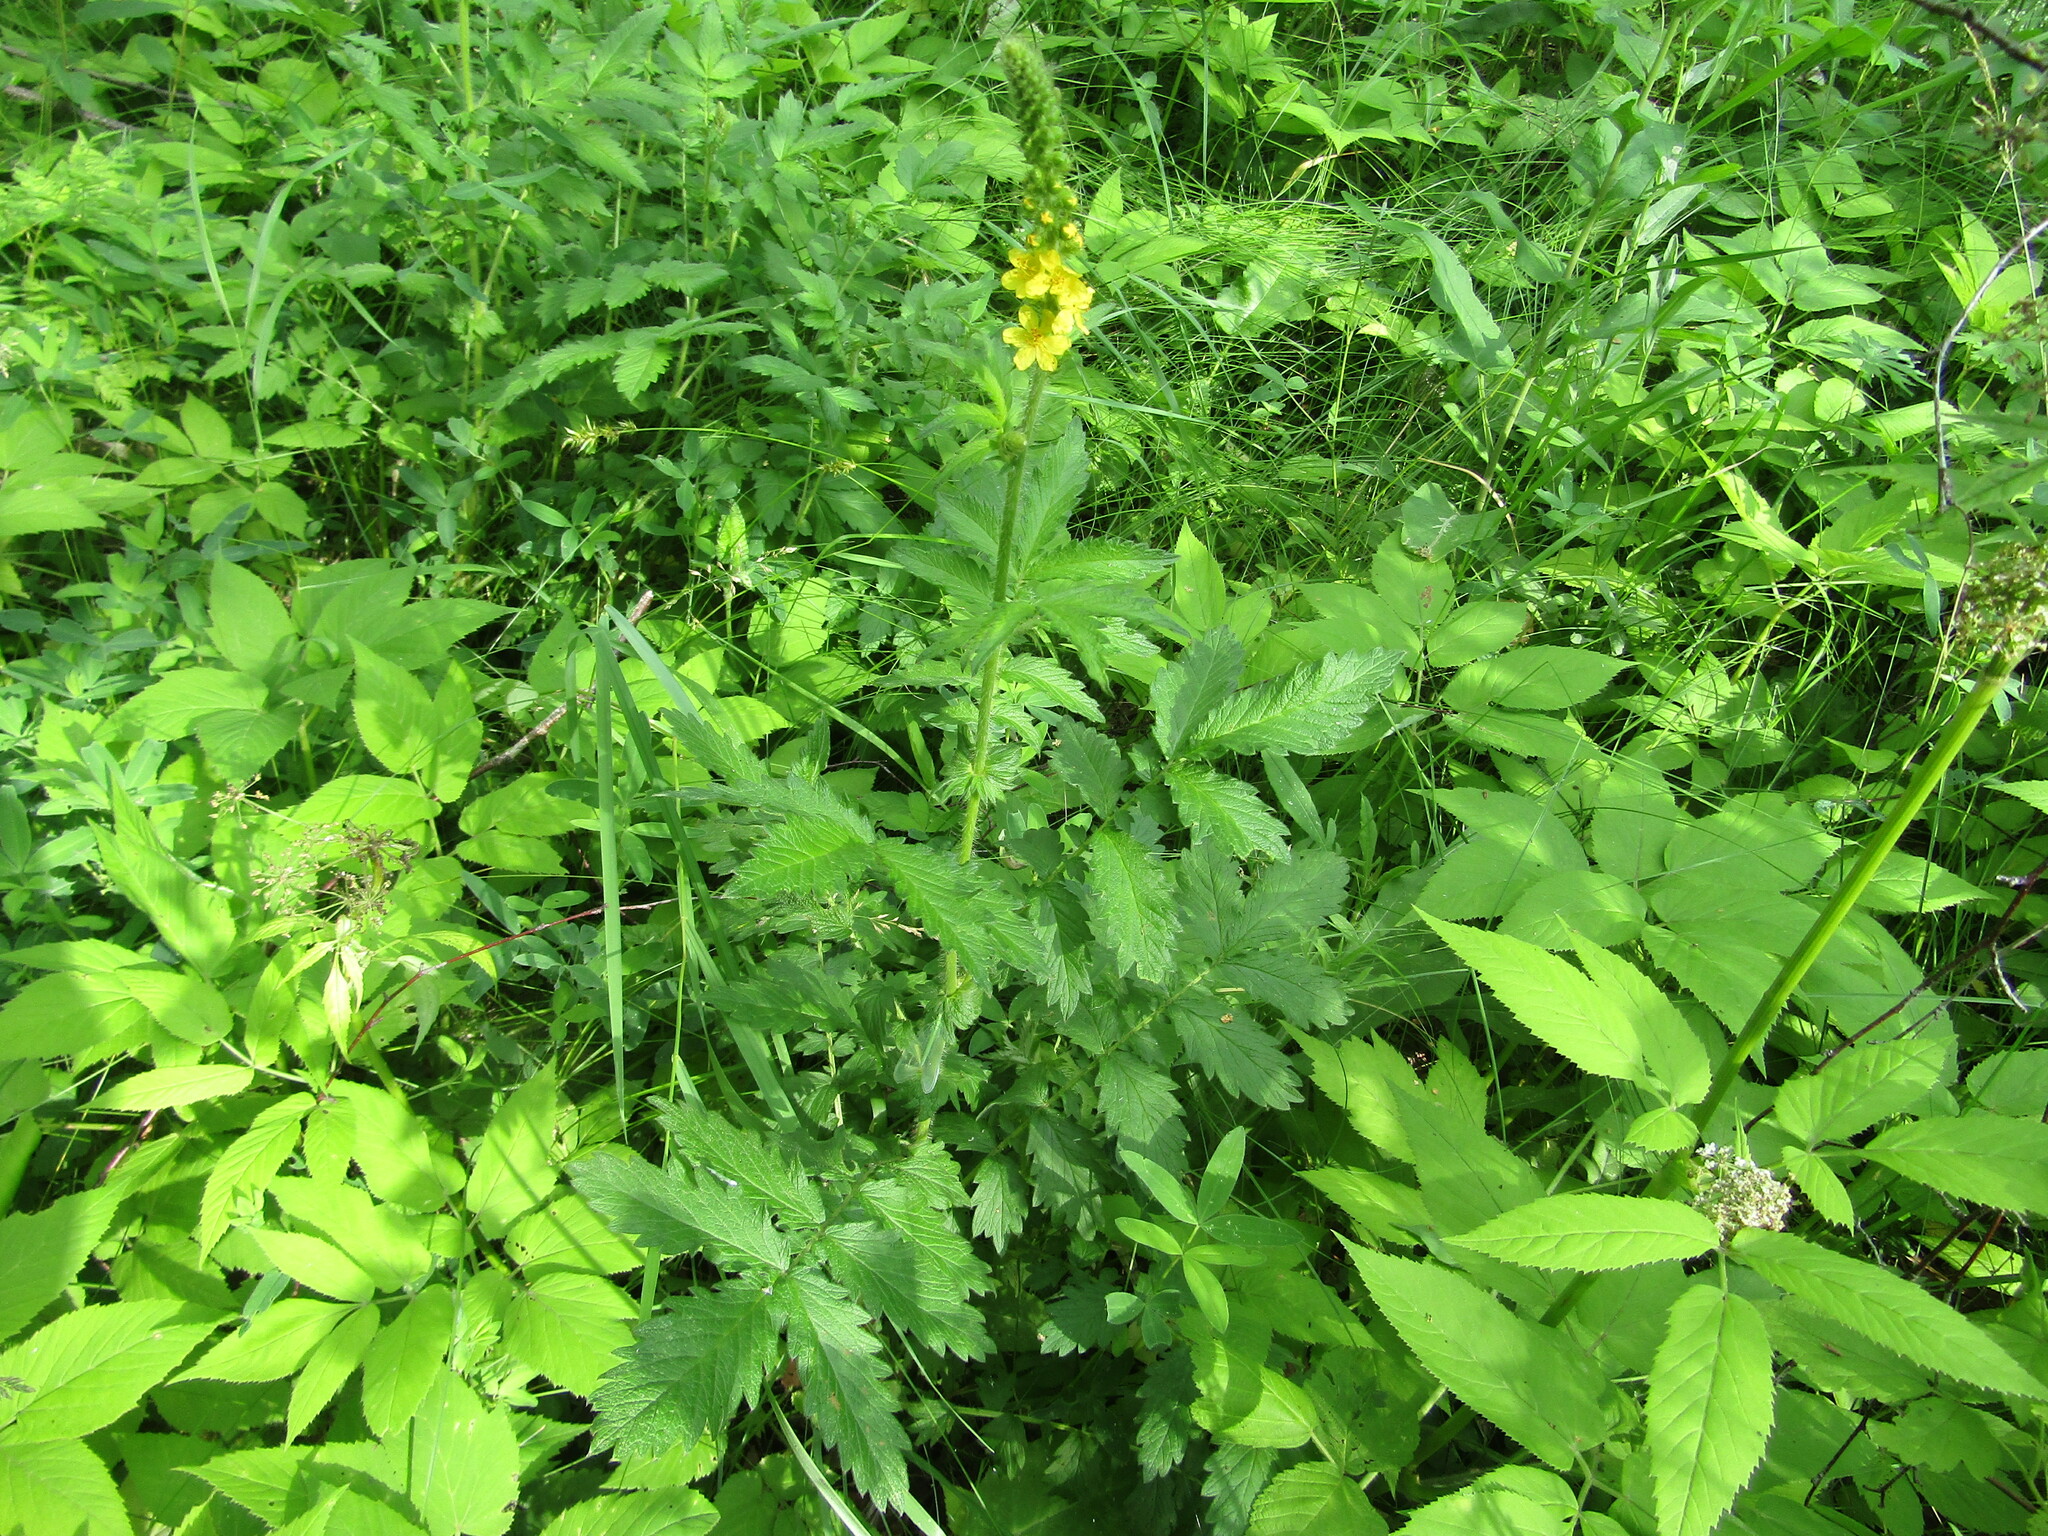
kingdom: Plantae
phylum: Tracheophyta
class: Magnoliopsida
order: Rosales
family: Rosaceae
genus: Agrimonia
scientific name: Agrimonia eupatoria
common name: Agrimony
